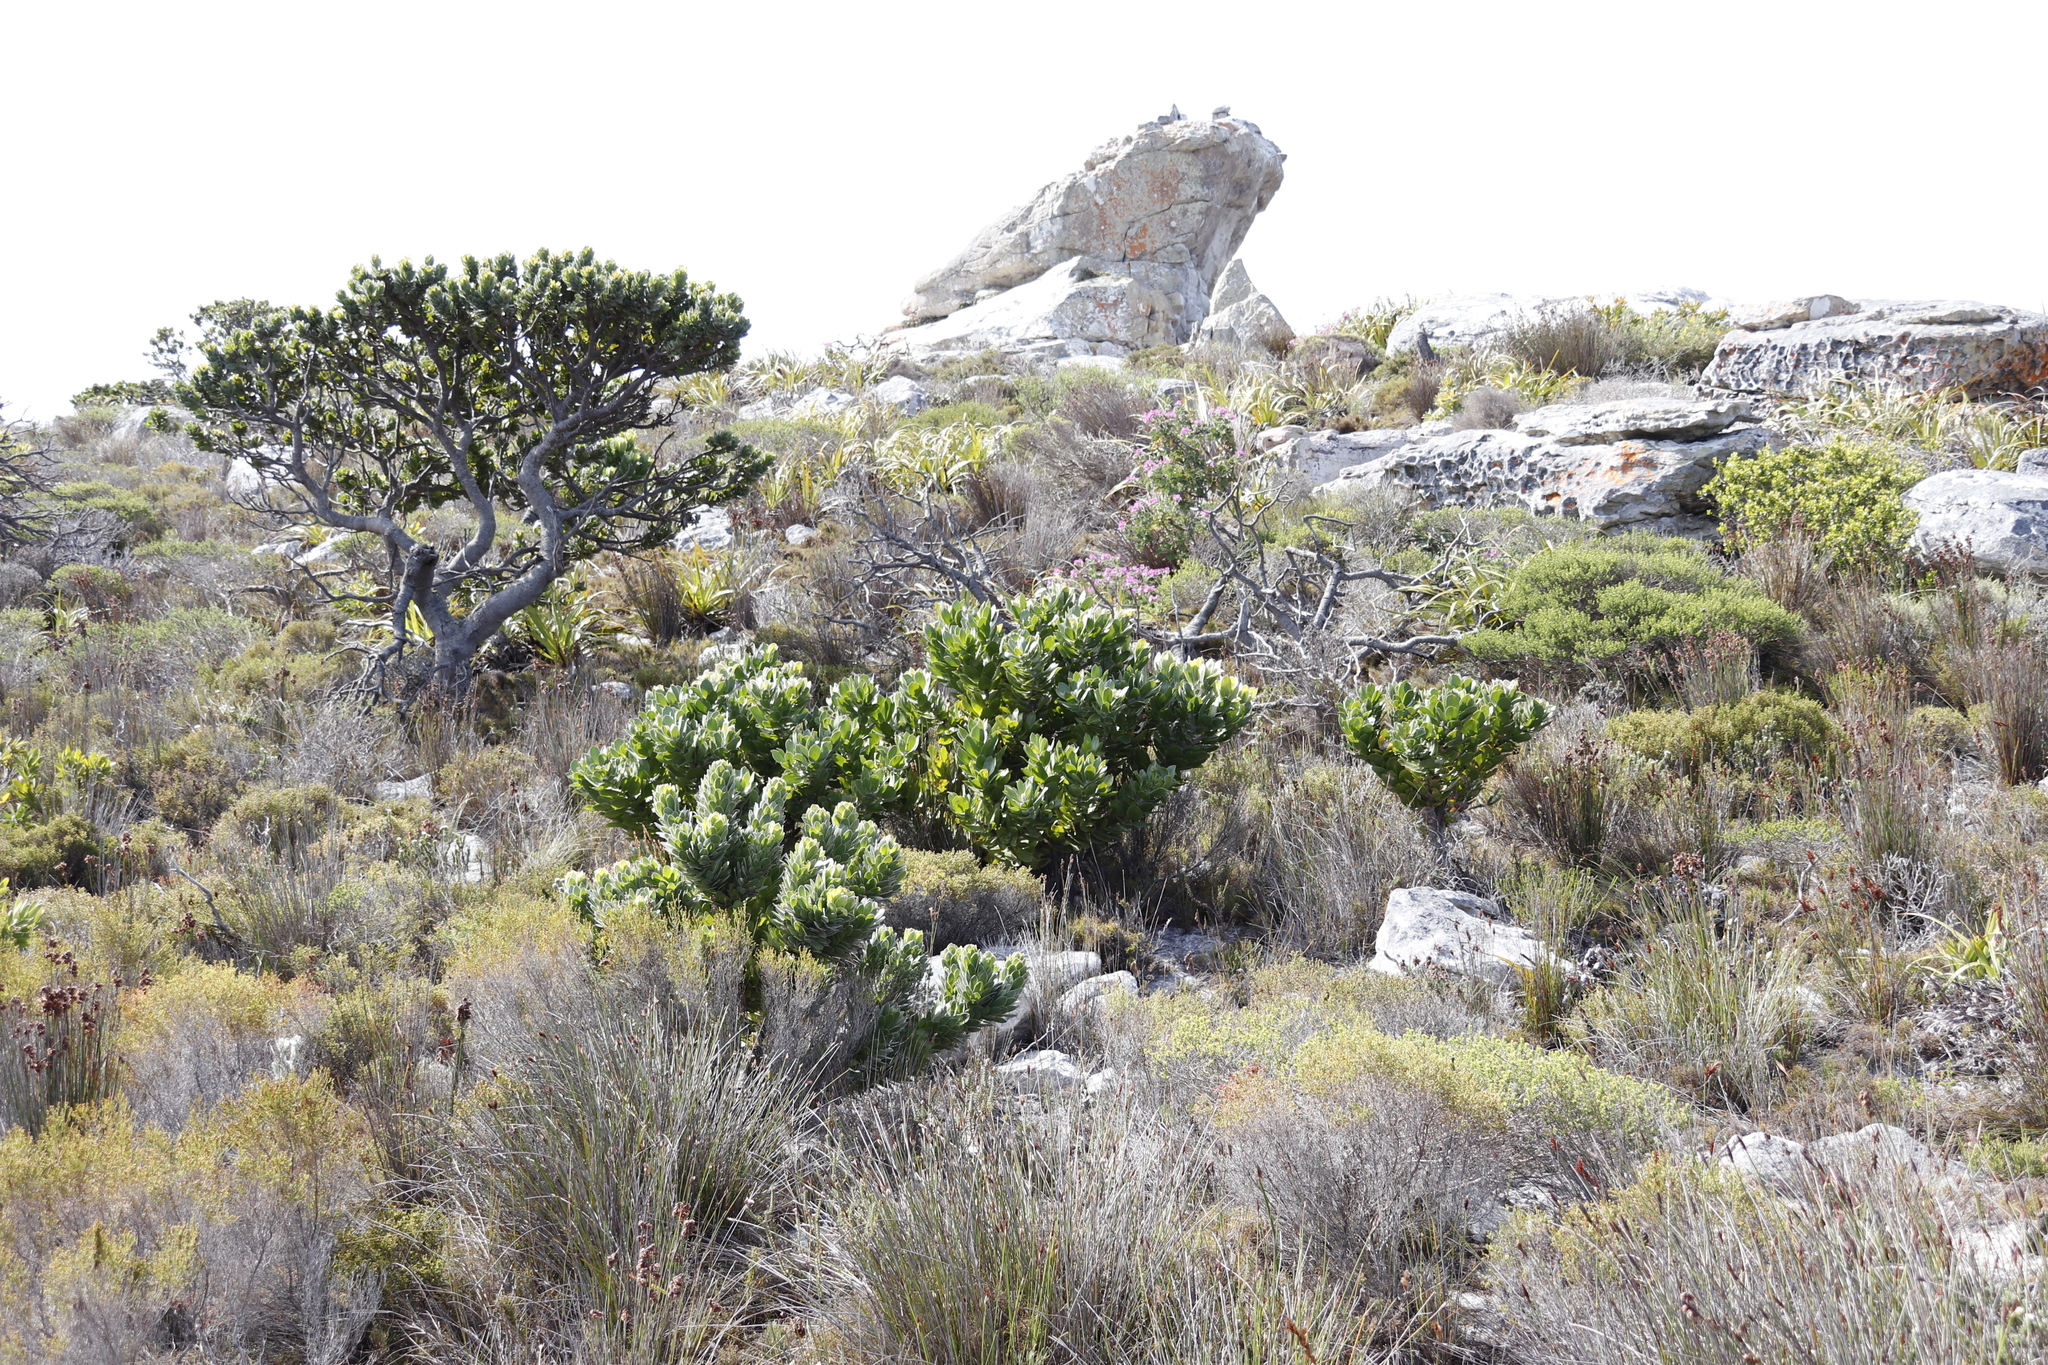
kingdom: Plantae
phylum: Tracheophyta
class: Magnoliopsida
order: Proteales
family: Proteaceae
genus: Mimetes
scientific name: Mimetes fimbriifolius
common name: Fringed bottlebrush
